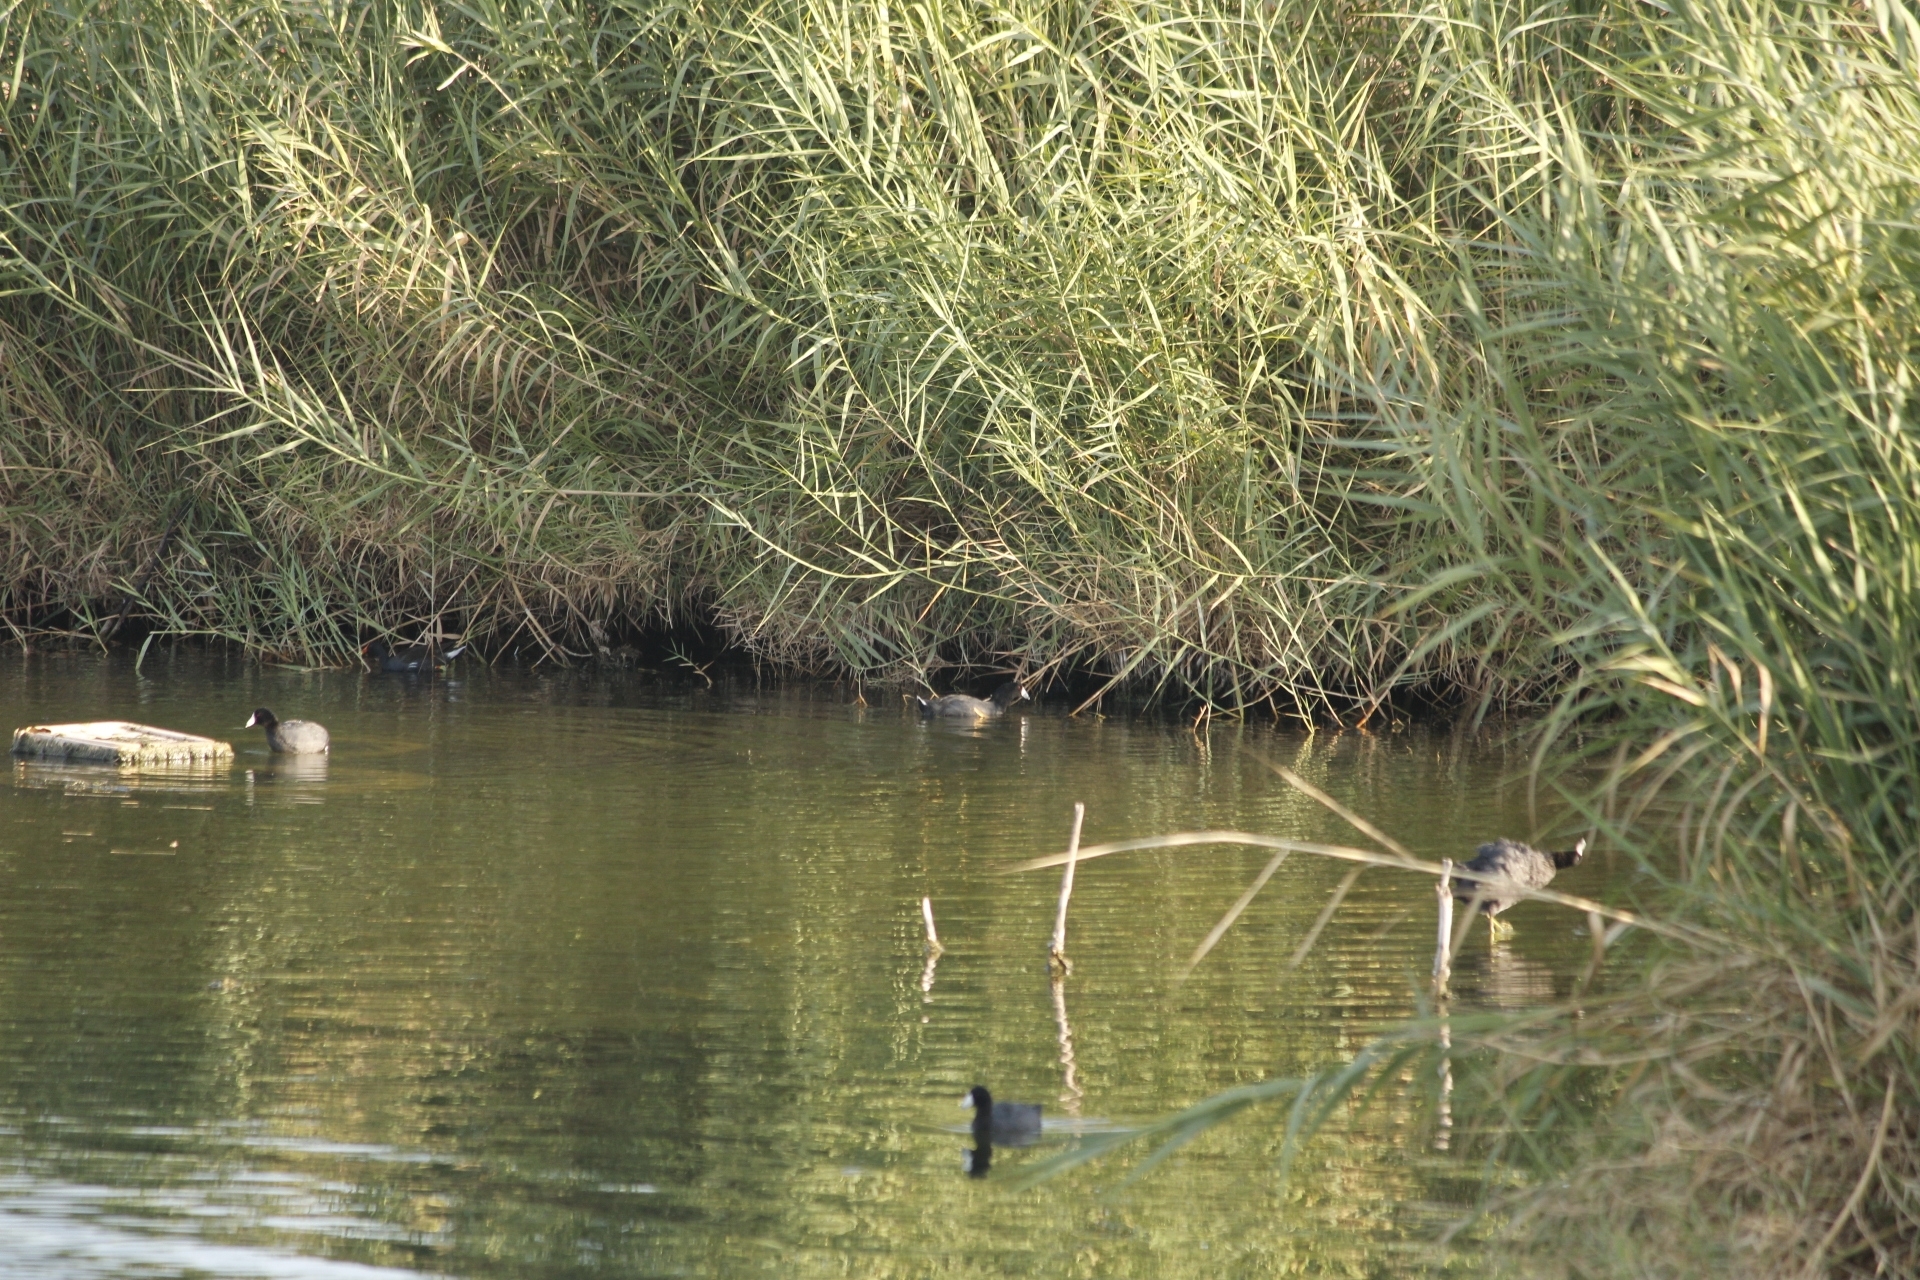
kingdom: Animalia
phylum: Chordata
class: Aves
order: Gruiformes
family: Rallidae
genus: Fulica
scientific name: Fulica americana
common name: American coot
